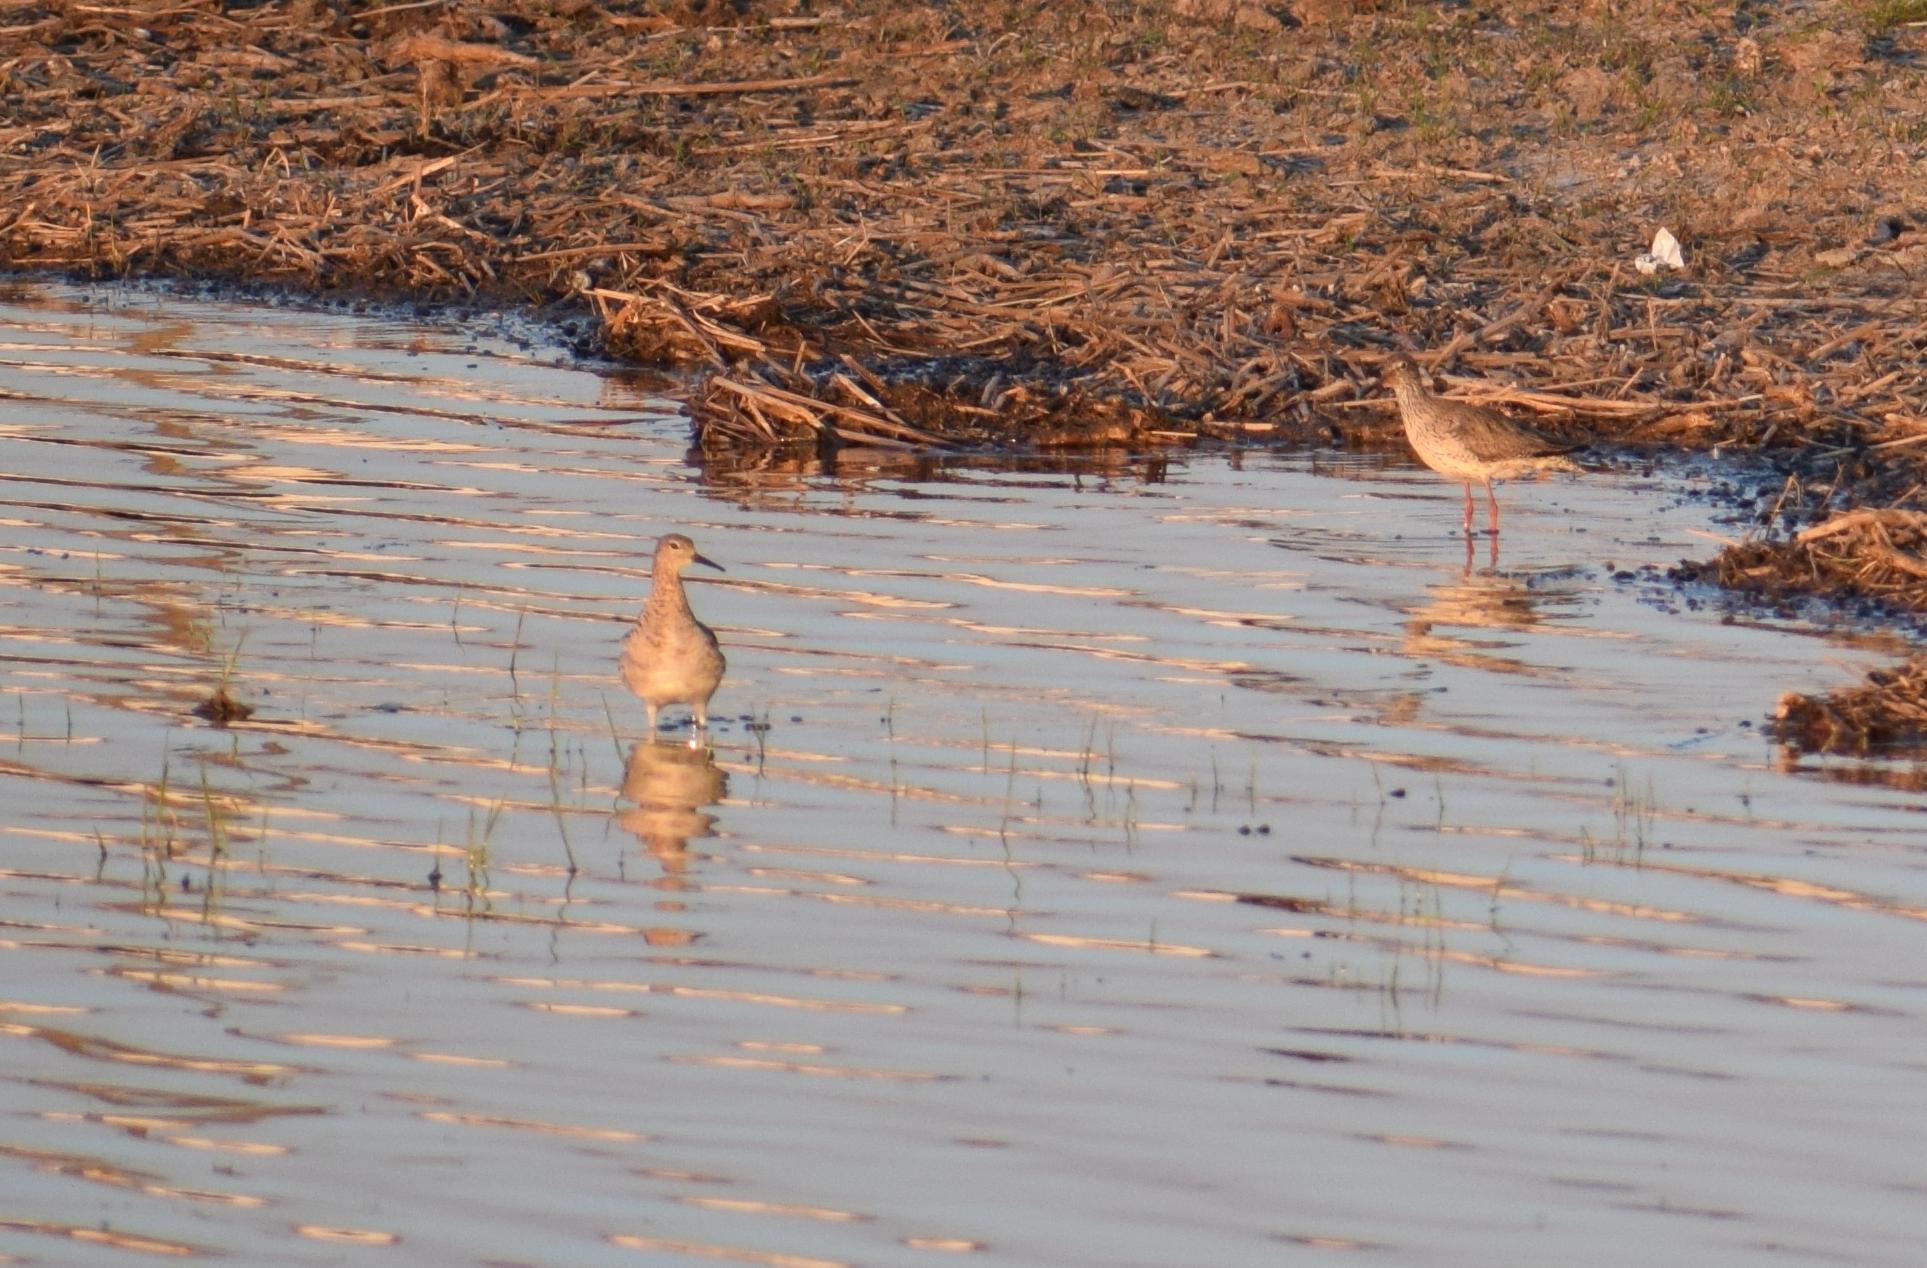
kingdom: Animalia
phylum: Chordata
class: Aves
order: Charadriiformes
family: Scolopacidae
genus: Calidris
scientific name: Calidris pugnax
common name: Ruff
